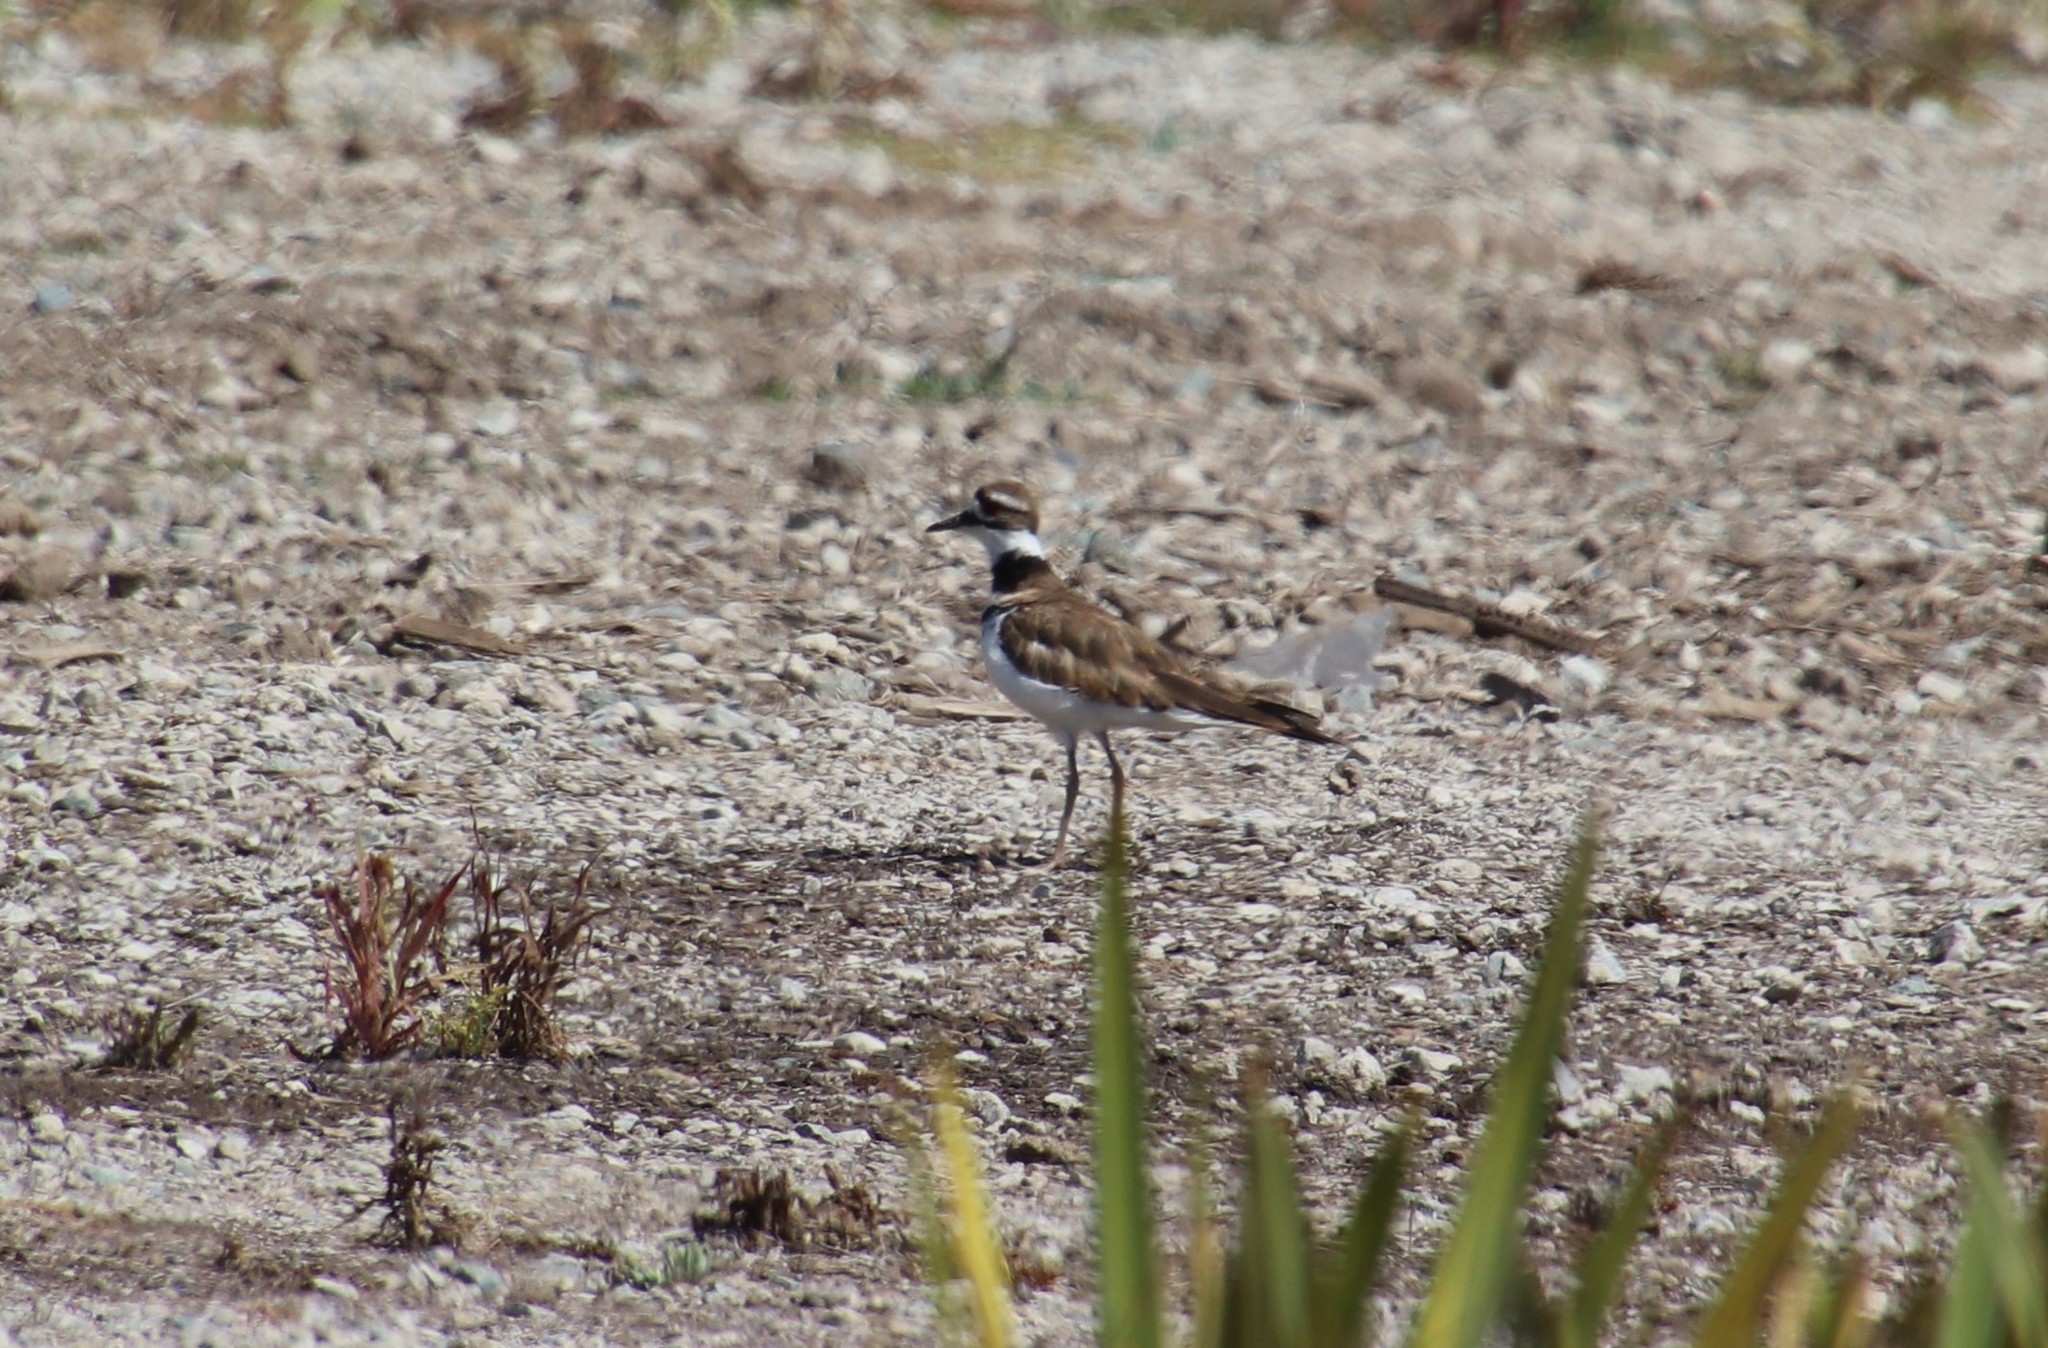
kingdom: Animalia
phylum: Chordata
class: Aves
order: Charadriiformes
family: Charadriidae
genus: Charadrius
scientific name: Charadrius vociferus
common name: Killdeer
